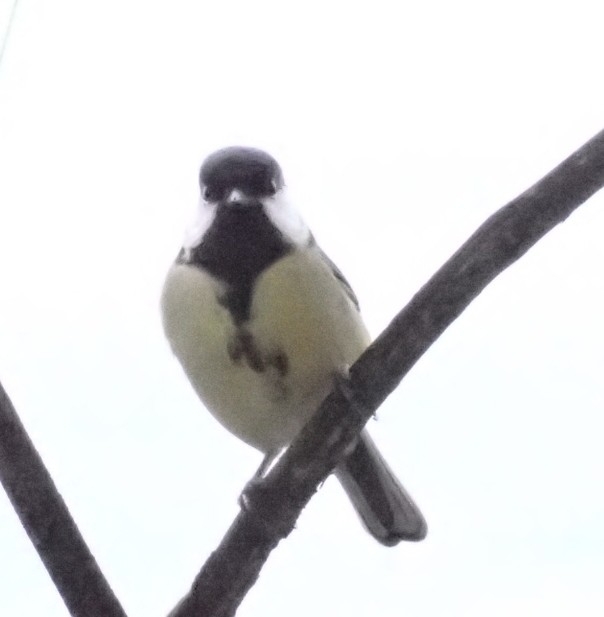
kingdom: Animalia
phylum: Chordata
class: Aves
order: Passeriformes
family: Paridae
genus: Parus
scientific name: Parus major
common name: Great tit
